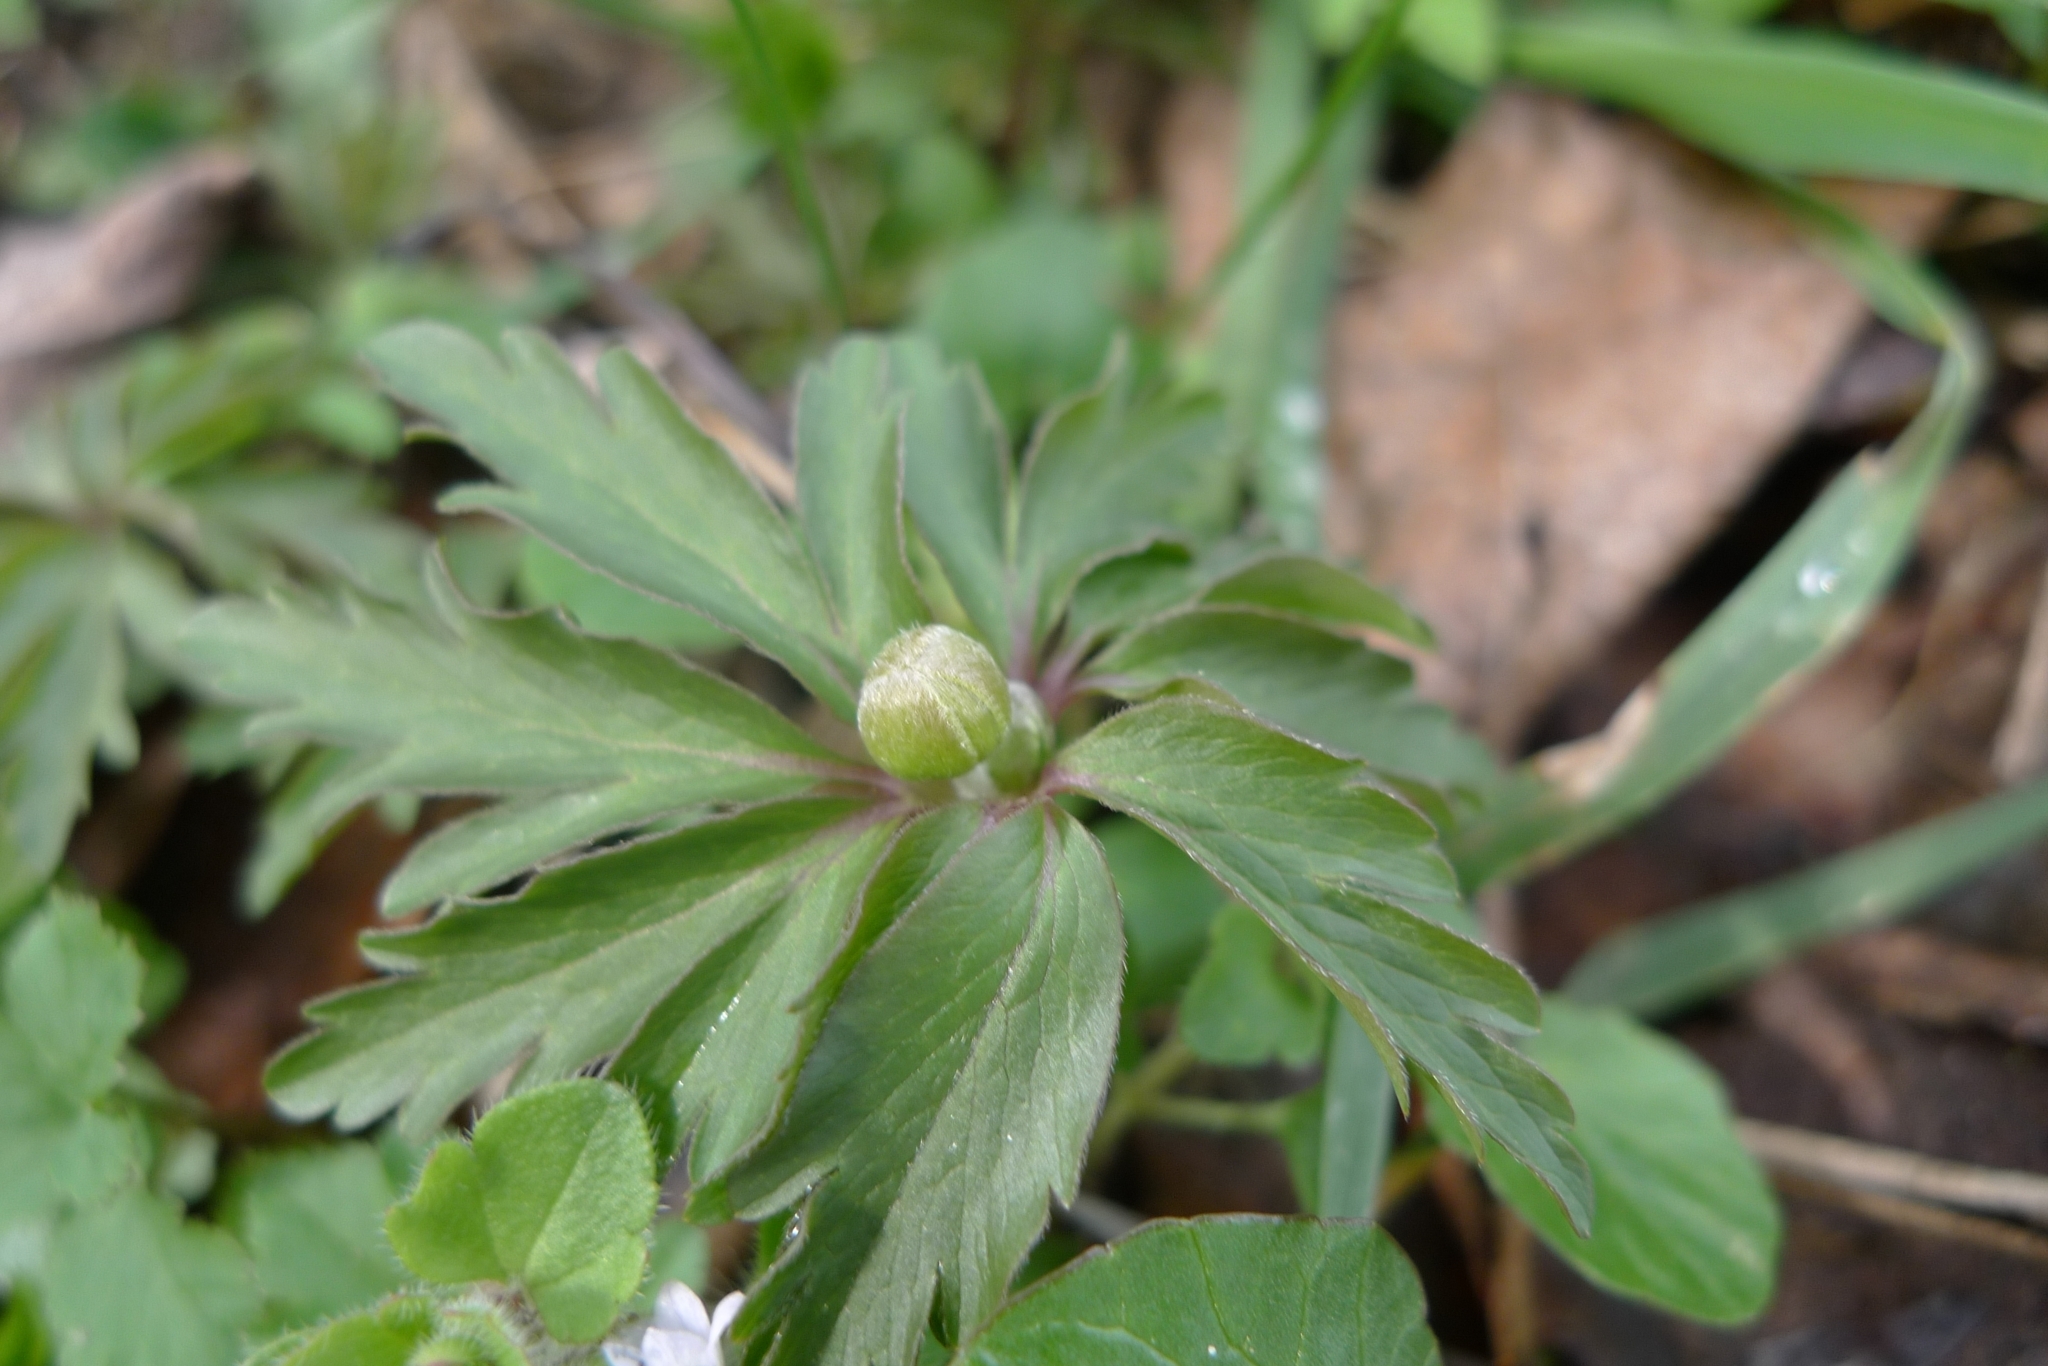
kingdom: Plantae
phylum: Tracheophyta
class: Magnoliopsida
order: Ranunculales
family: Ranunculaceae
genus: Anemone
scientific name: Anemone ranunculoides
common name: Yellow anemone
